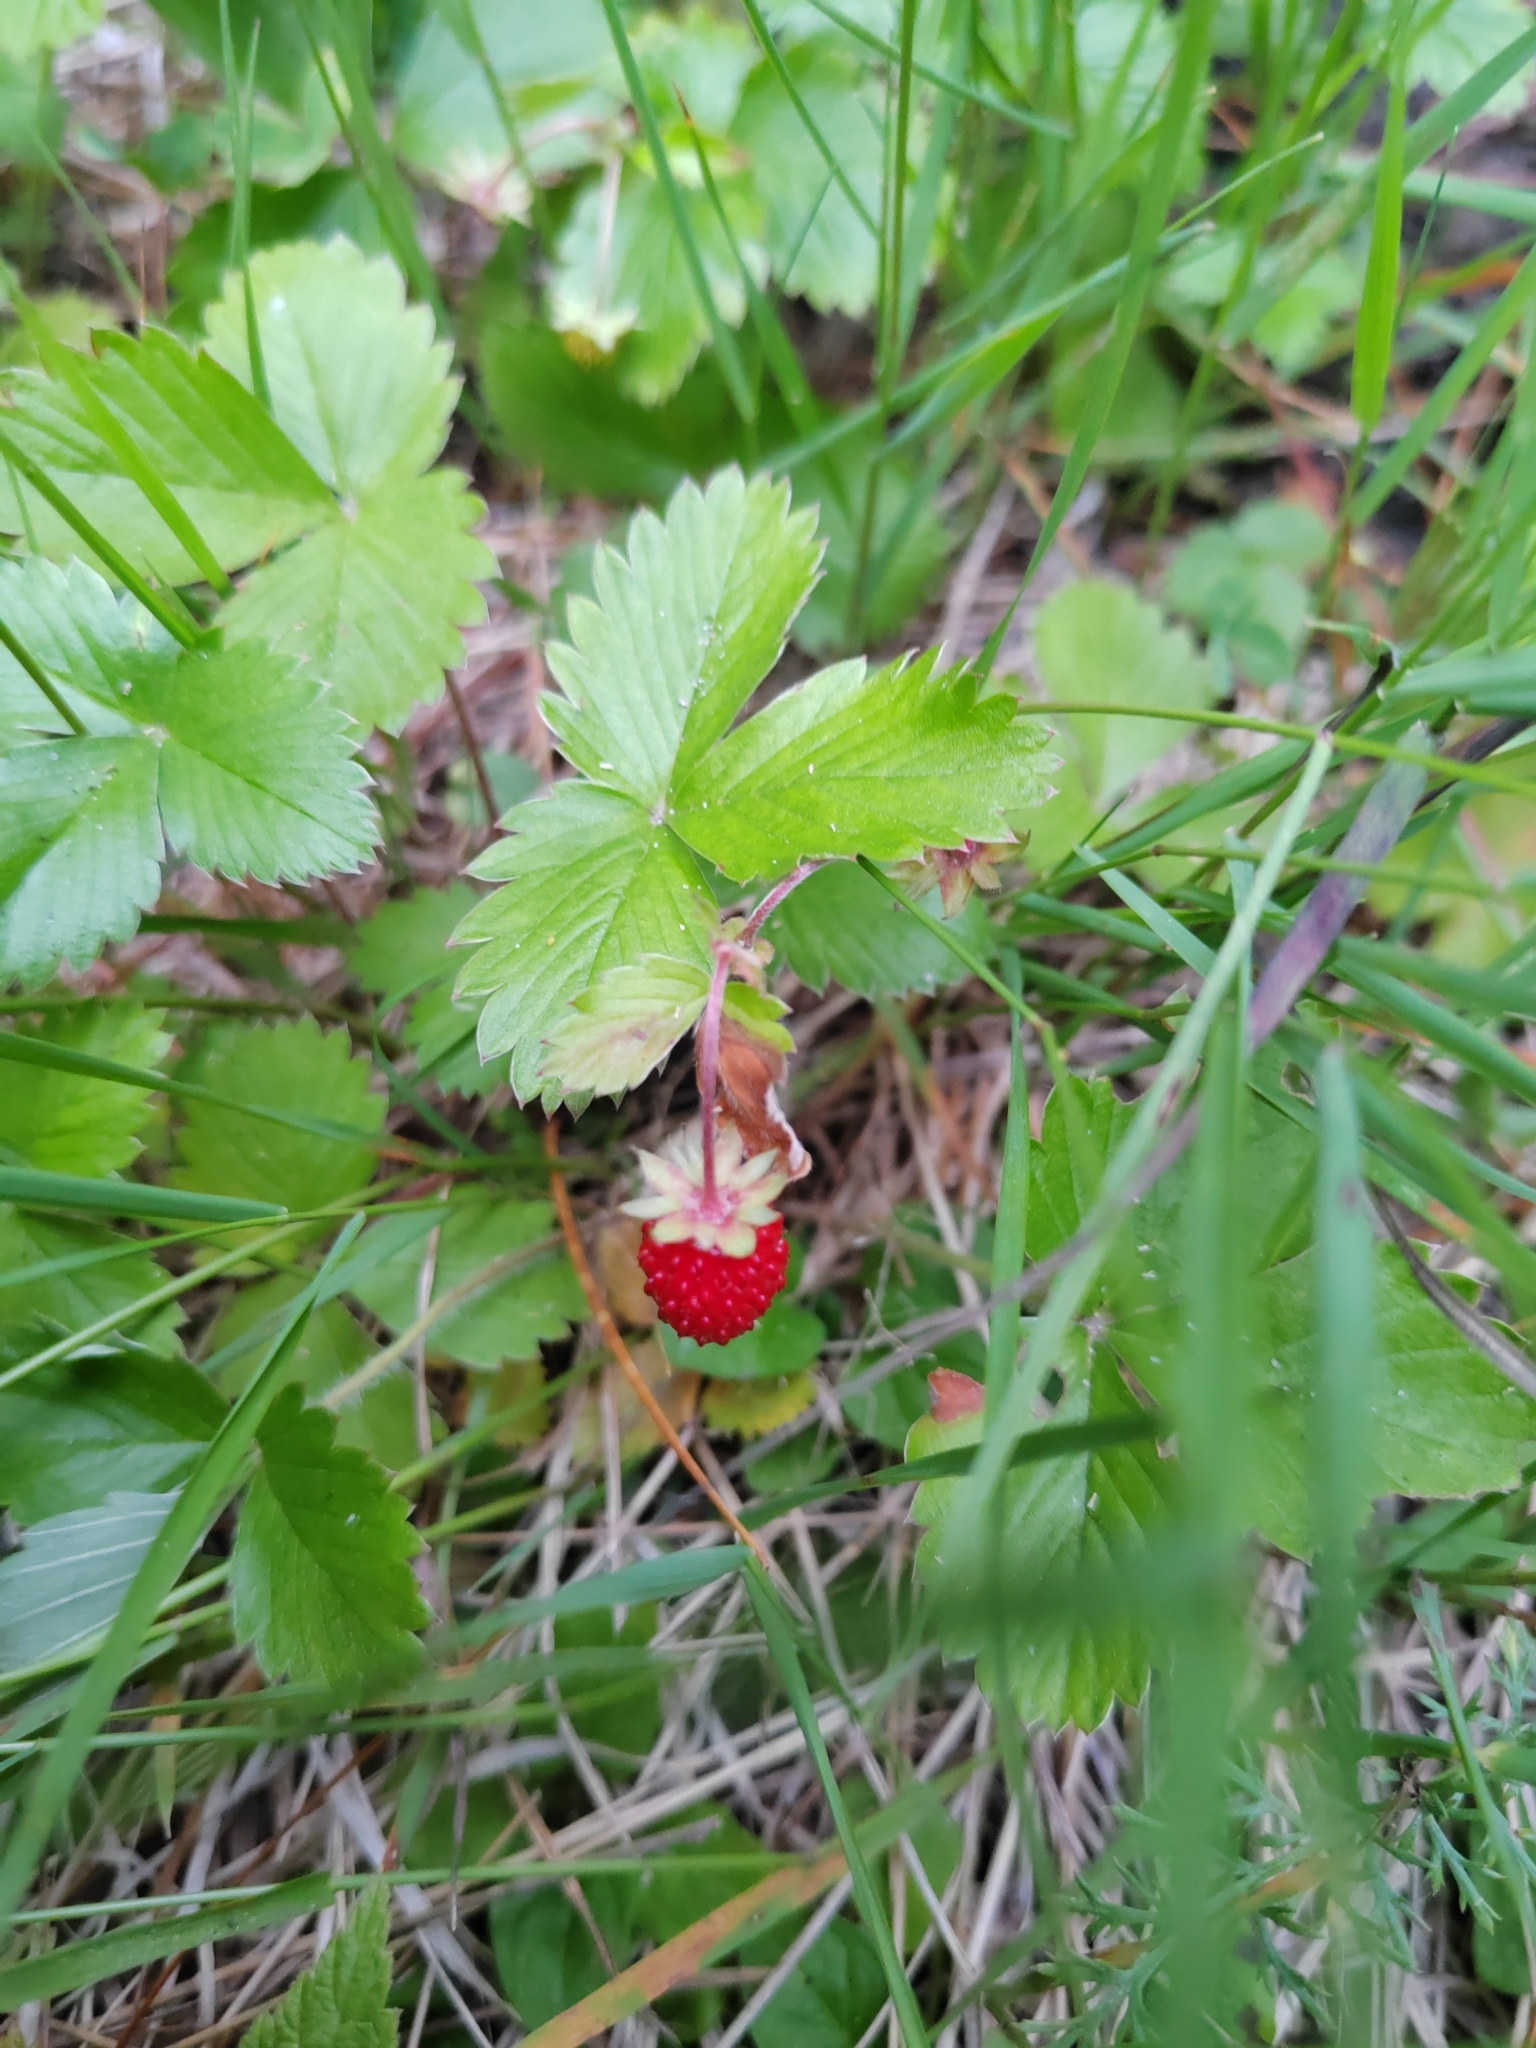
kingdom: Plantae
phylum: Tracheophyta
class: Magnoliopsida
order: Rosales
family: Rosaceae
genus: Fragaria
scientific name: Fragaria vesca
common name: Wild strawberry
